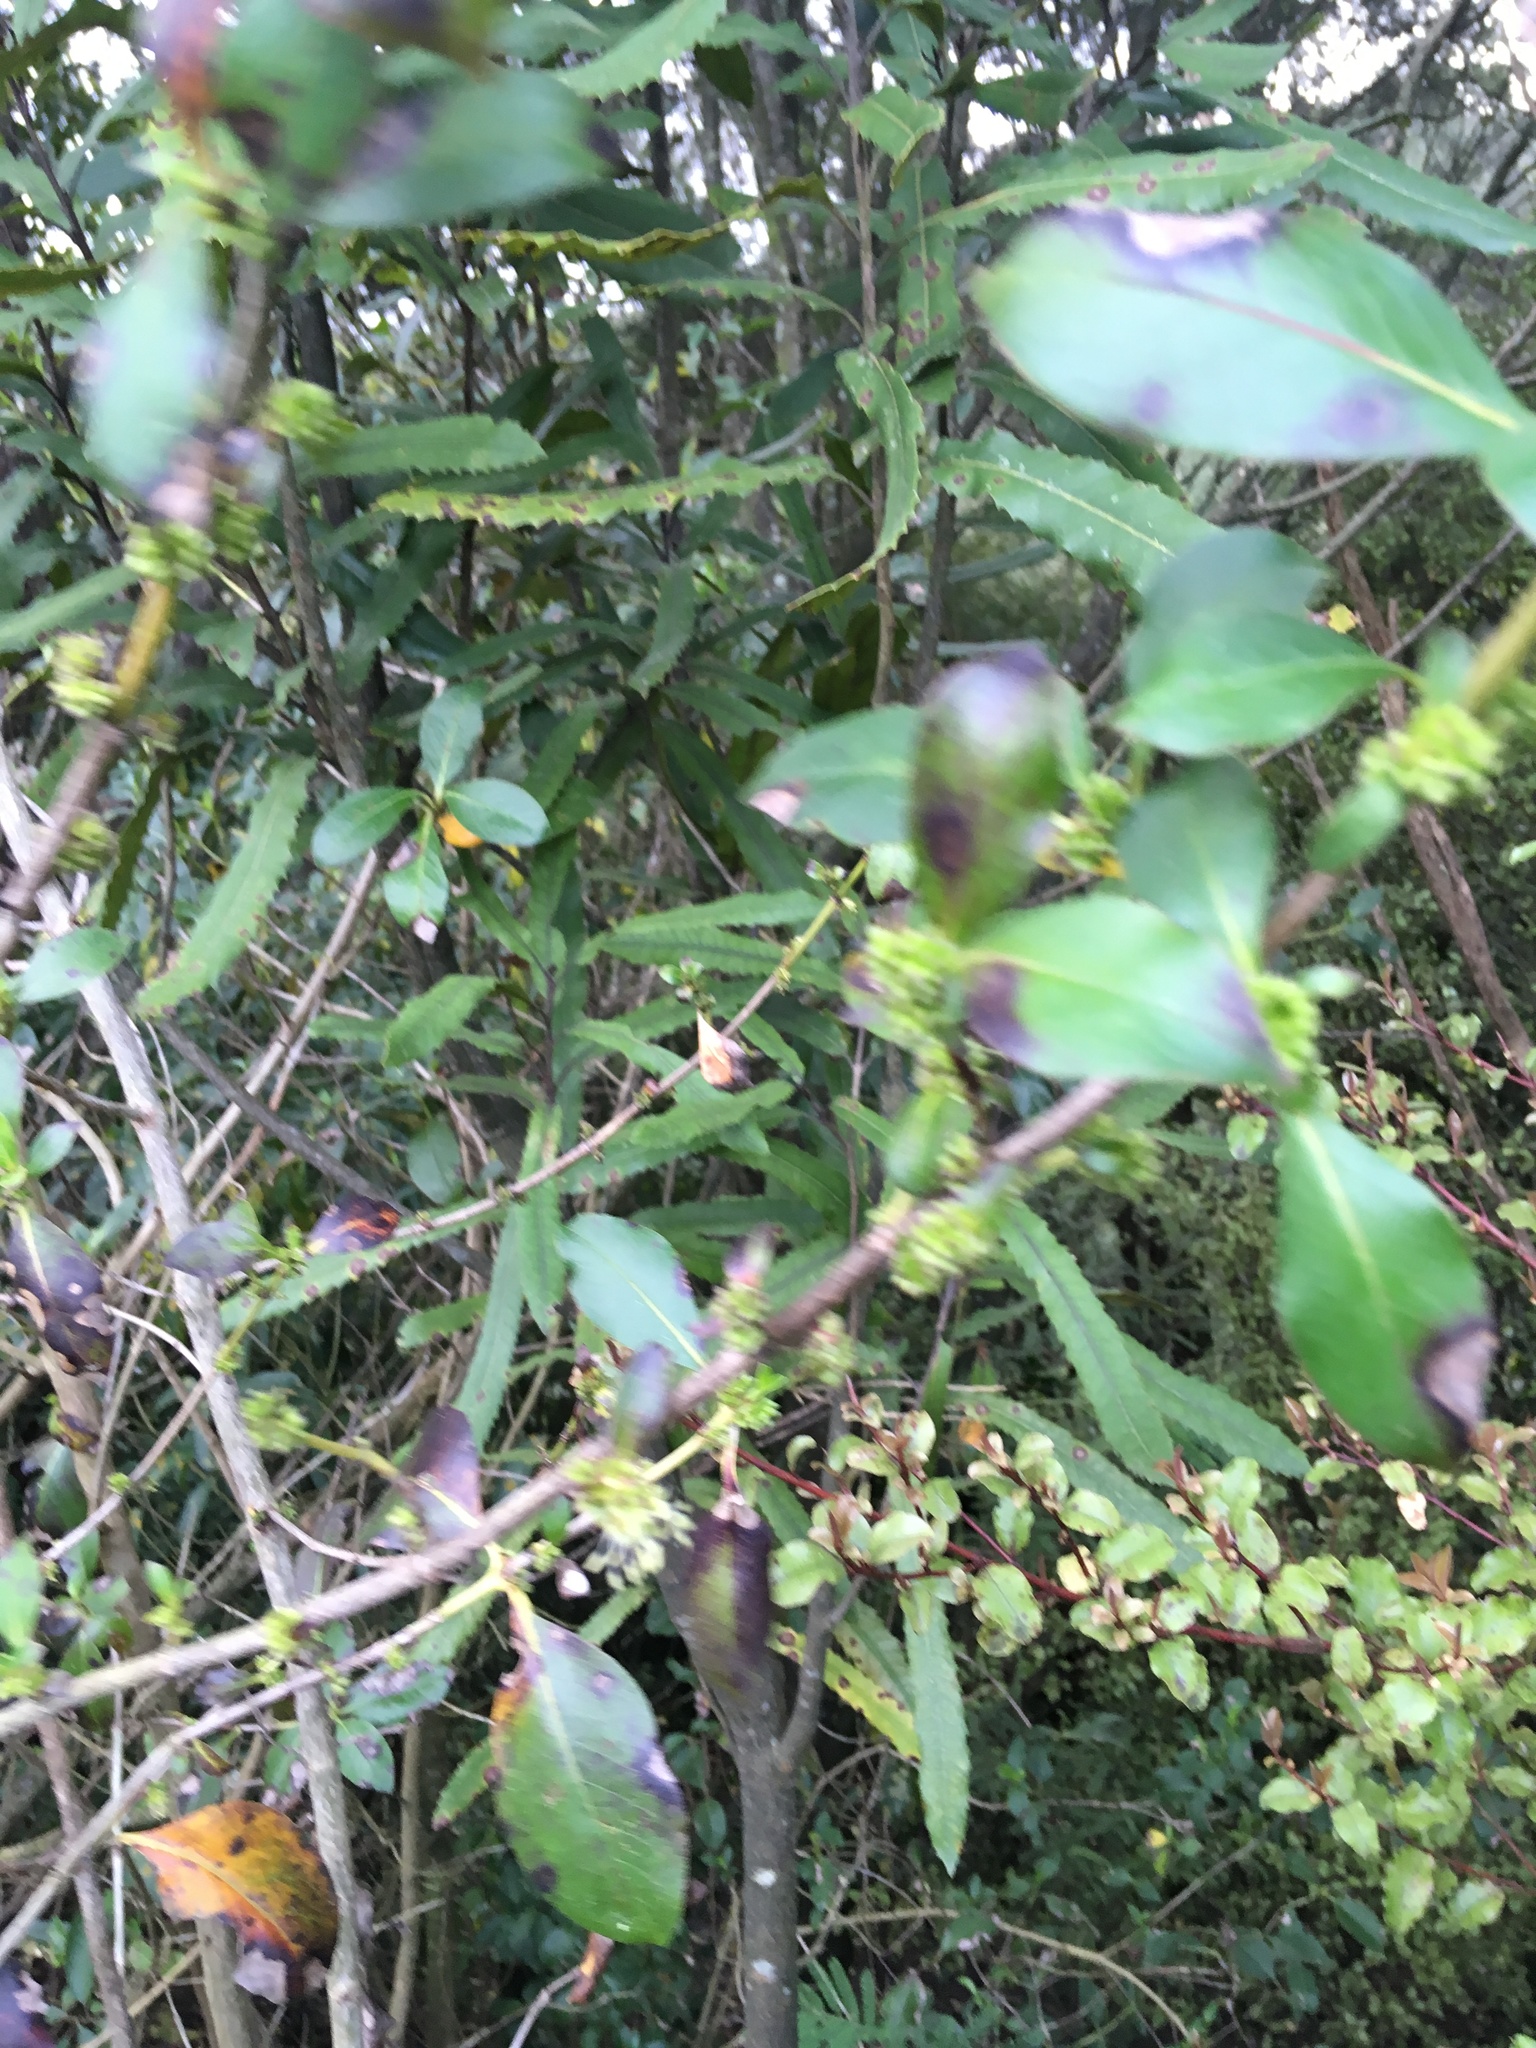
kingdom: Plantae
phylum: Tracheophyta
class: Magnoliopsida
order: Proteales
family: Proteaceae
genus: Knightia
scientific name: Knightia excelsa
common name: New zealand-honeysuckle
